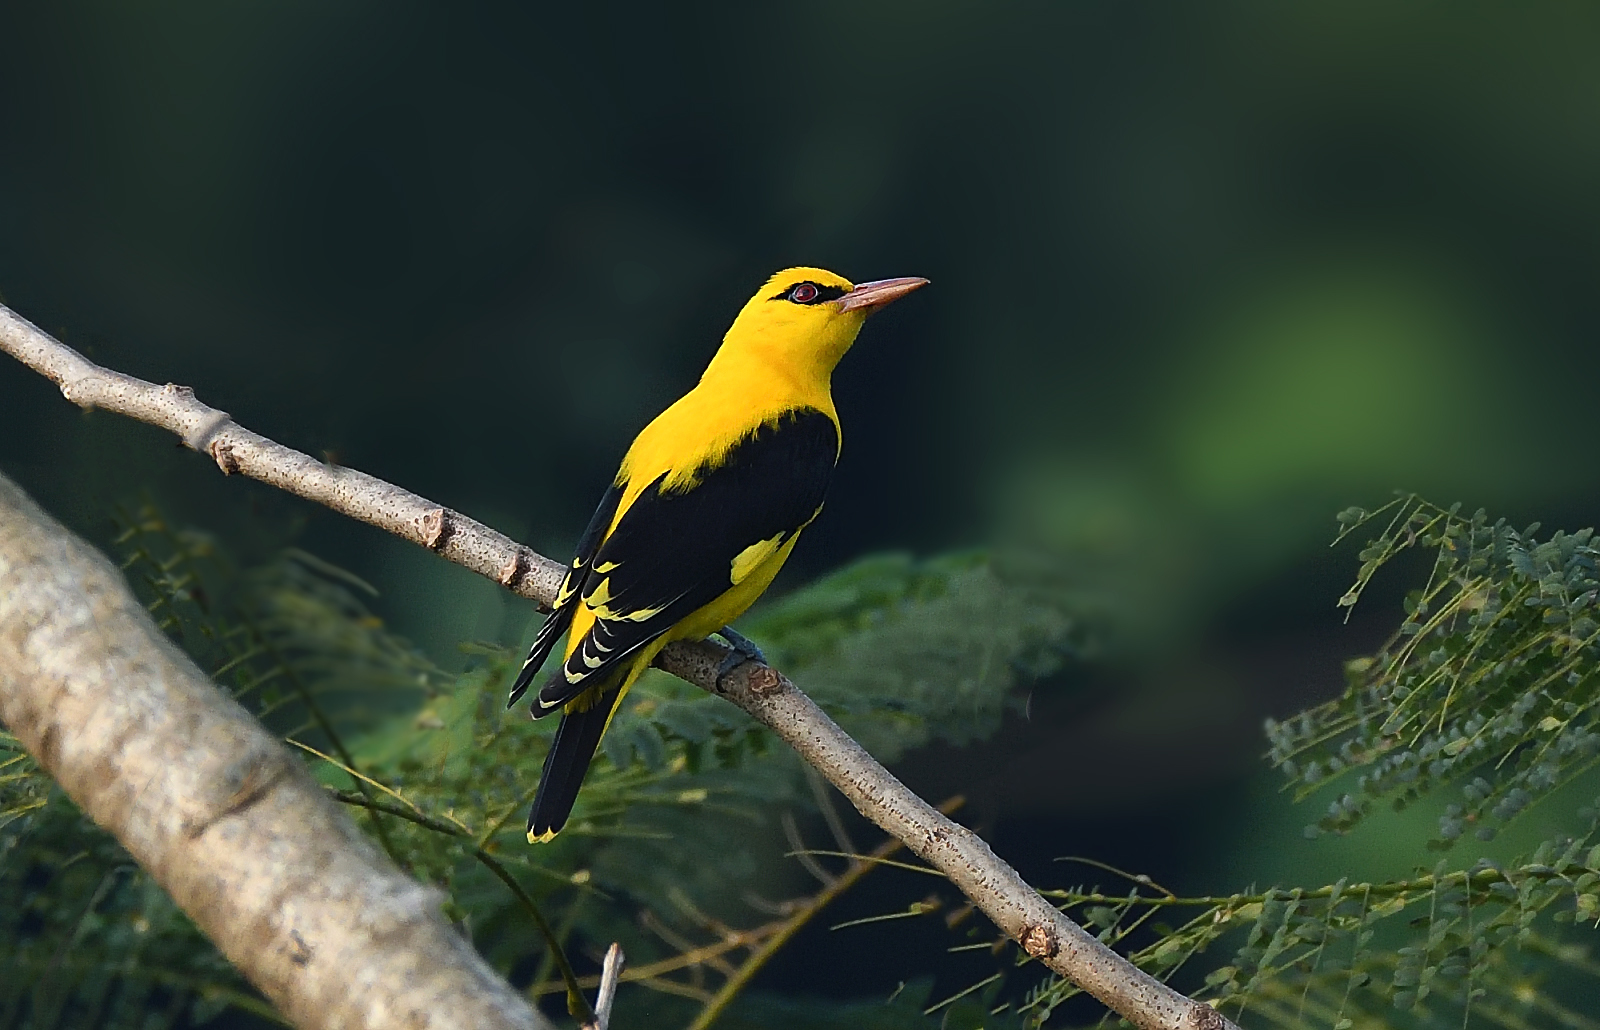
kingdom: Animalia
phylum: Chordata
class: Aves
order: Passeriformes
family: Oriolidae
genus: Oriolus
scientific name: Oriolus kundoo
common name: Indian golden oriole
